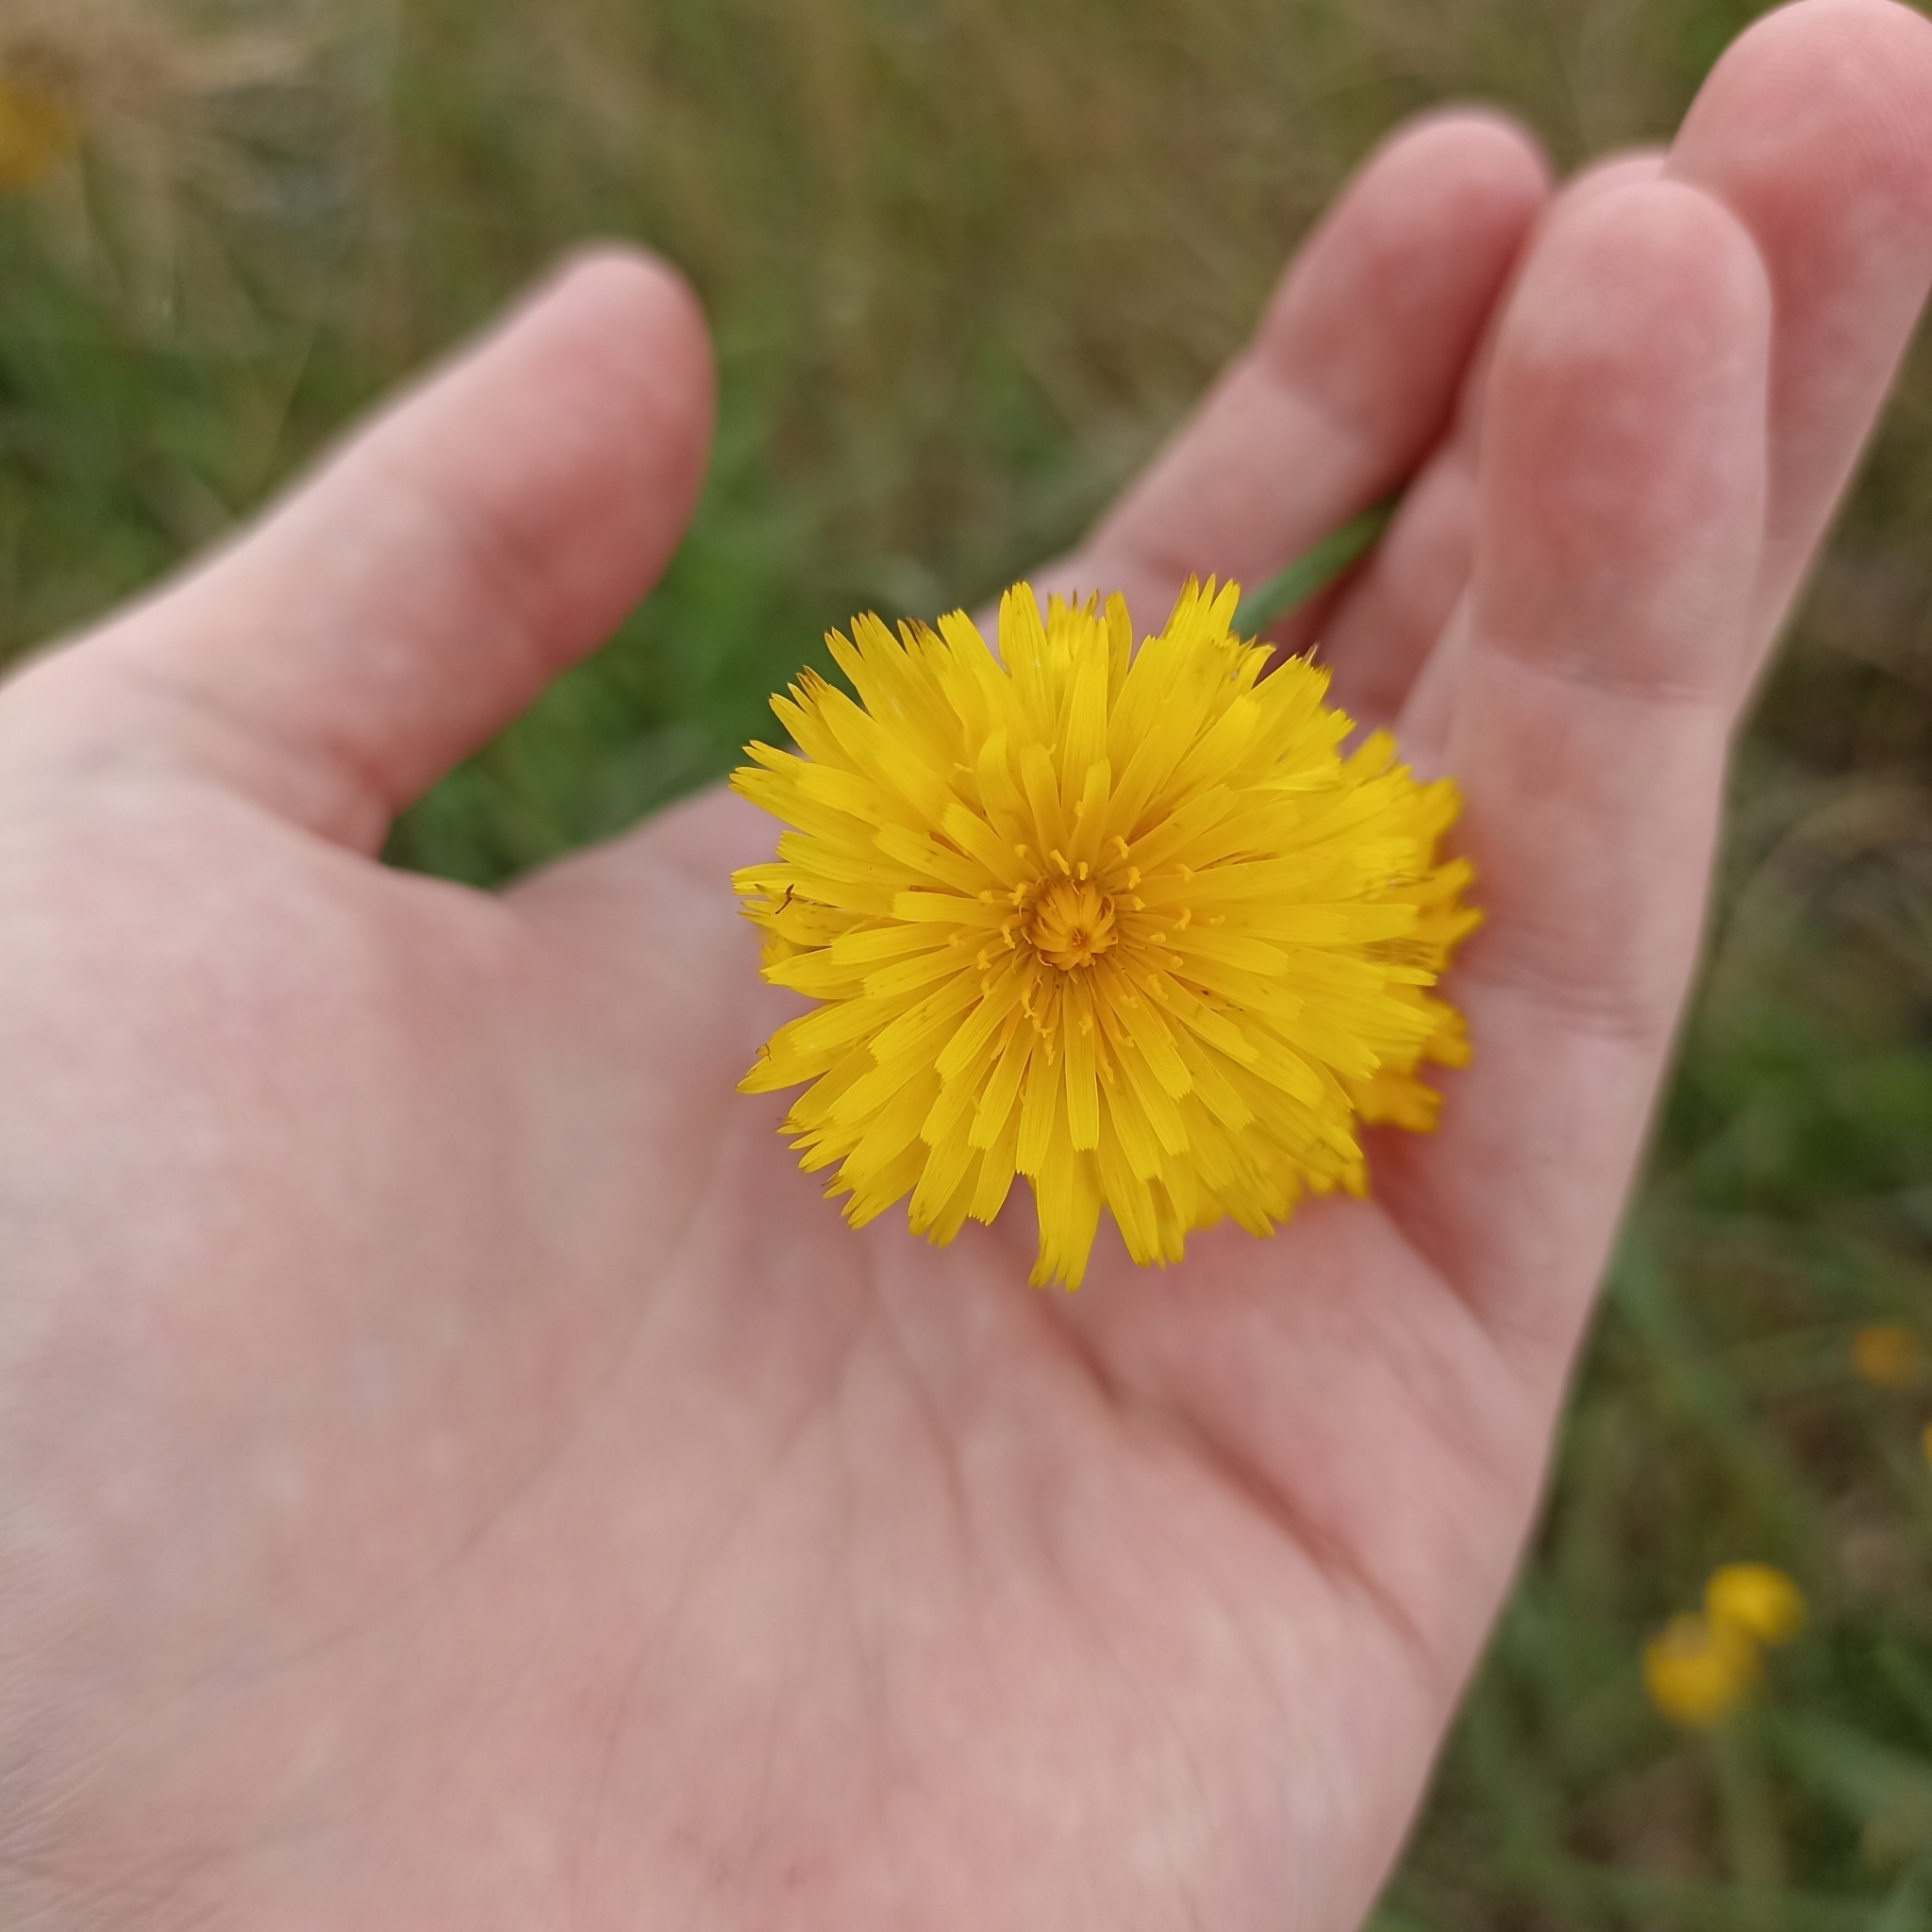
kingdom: Plantae
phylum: Tracheophyta
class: Magnoliopsida
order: Asterales
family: Asteraceae
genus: Hypochaeris
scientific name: Hypochaeris radicata
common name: Flatweed
